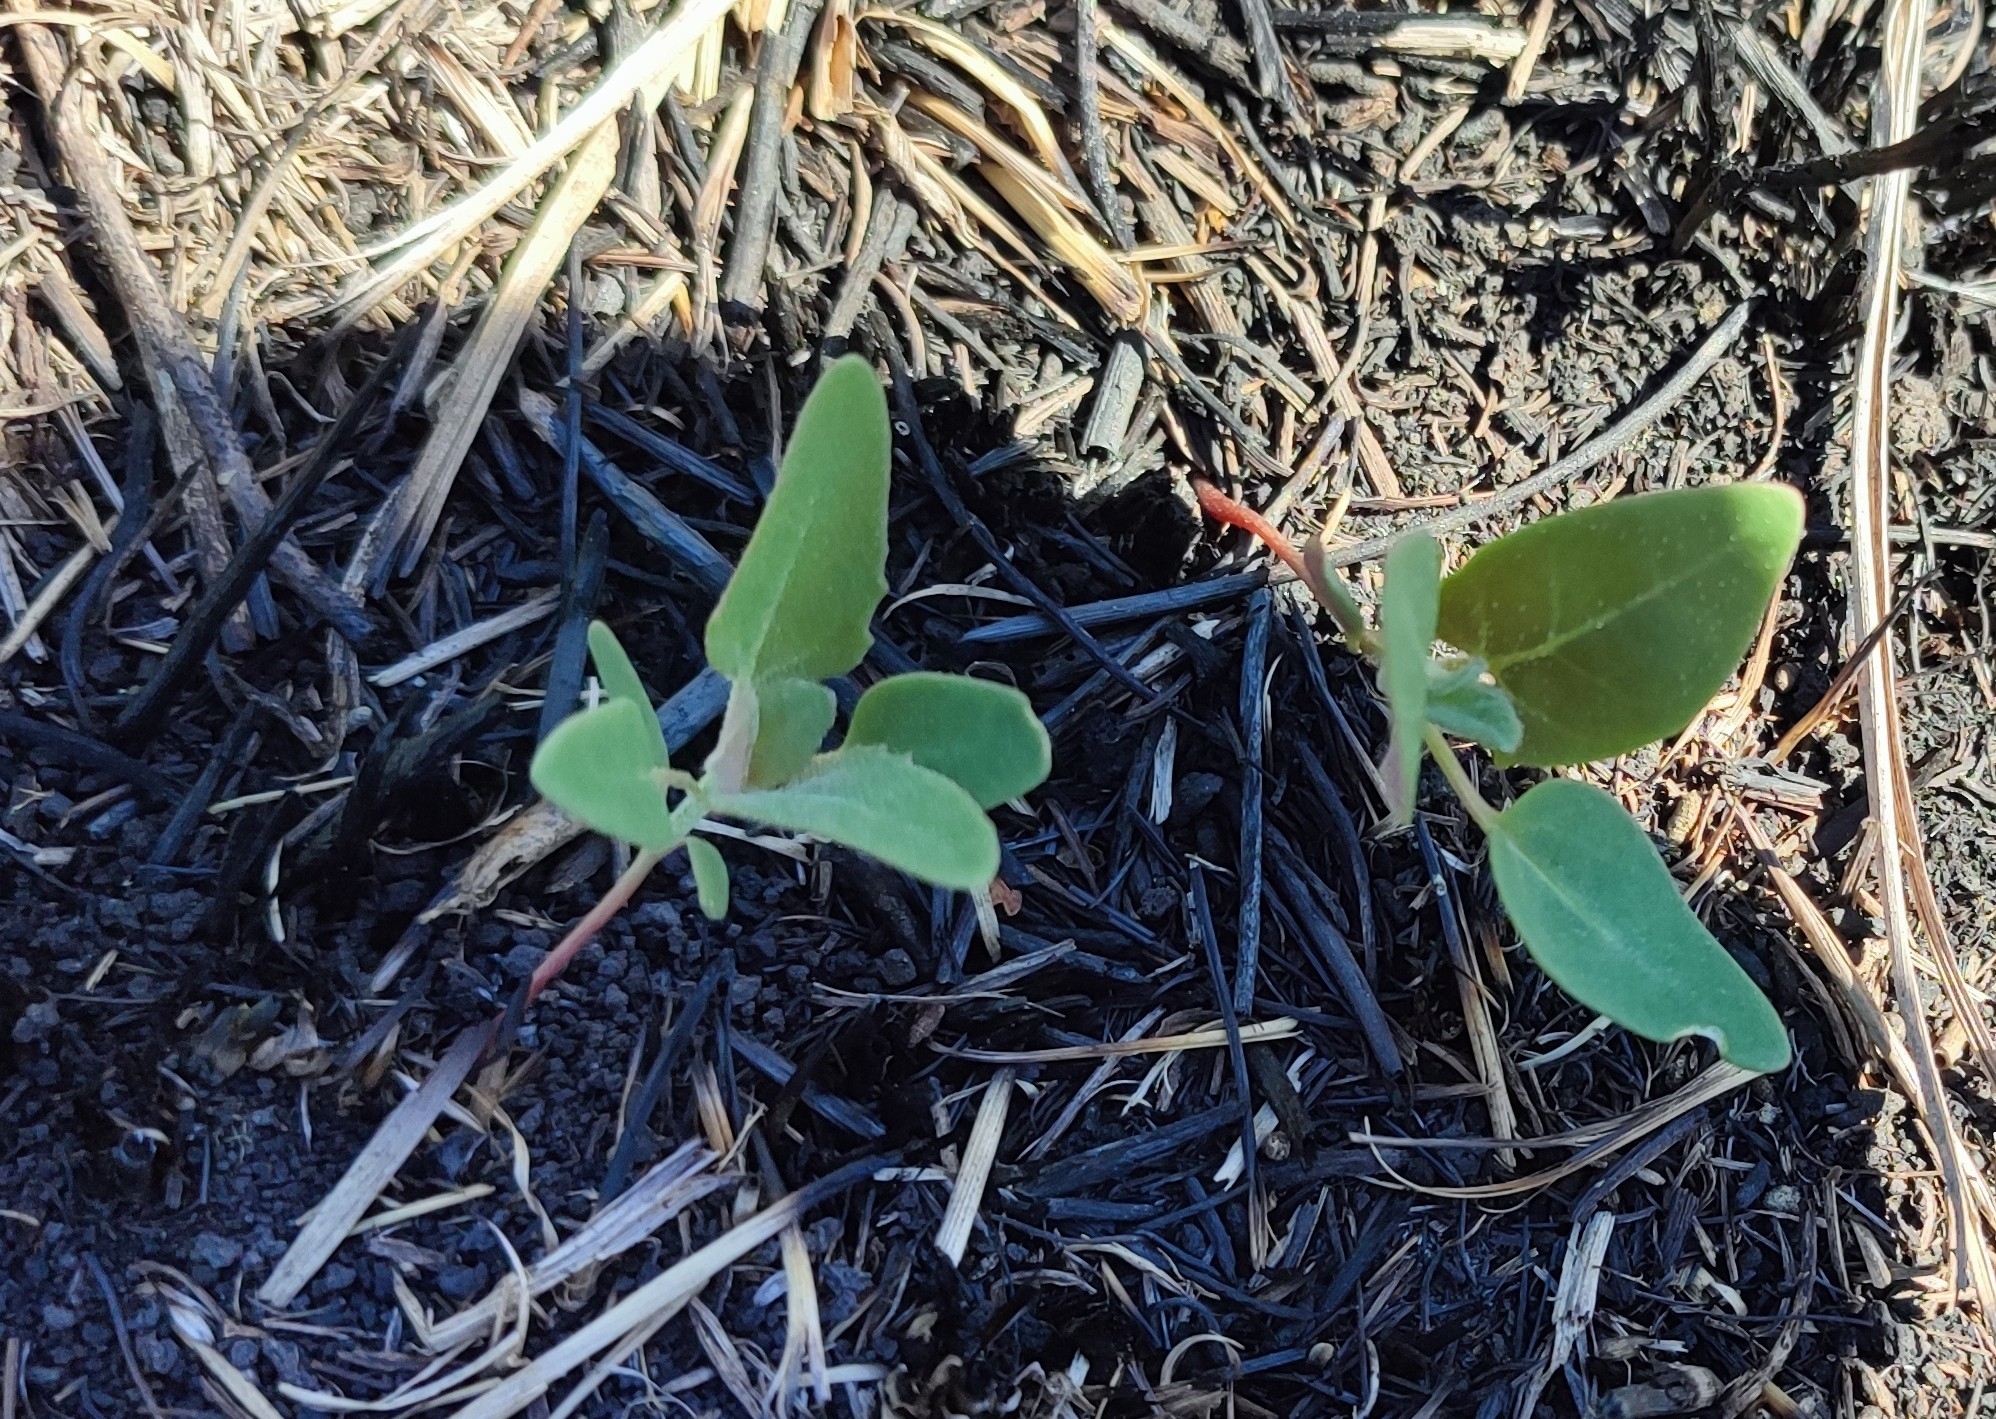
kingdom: Plantae
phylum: Tracheophyta
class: Magnoliopsida
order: Caryophyllales
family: Amaranthaceae
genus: Chenopodium
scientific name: Chenopodium album
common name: Fat-hen
